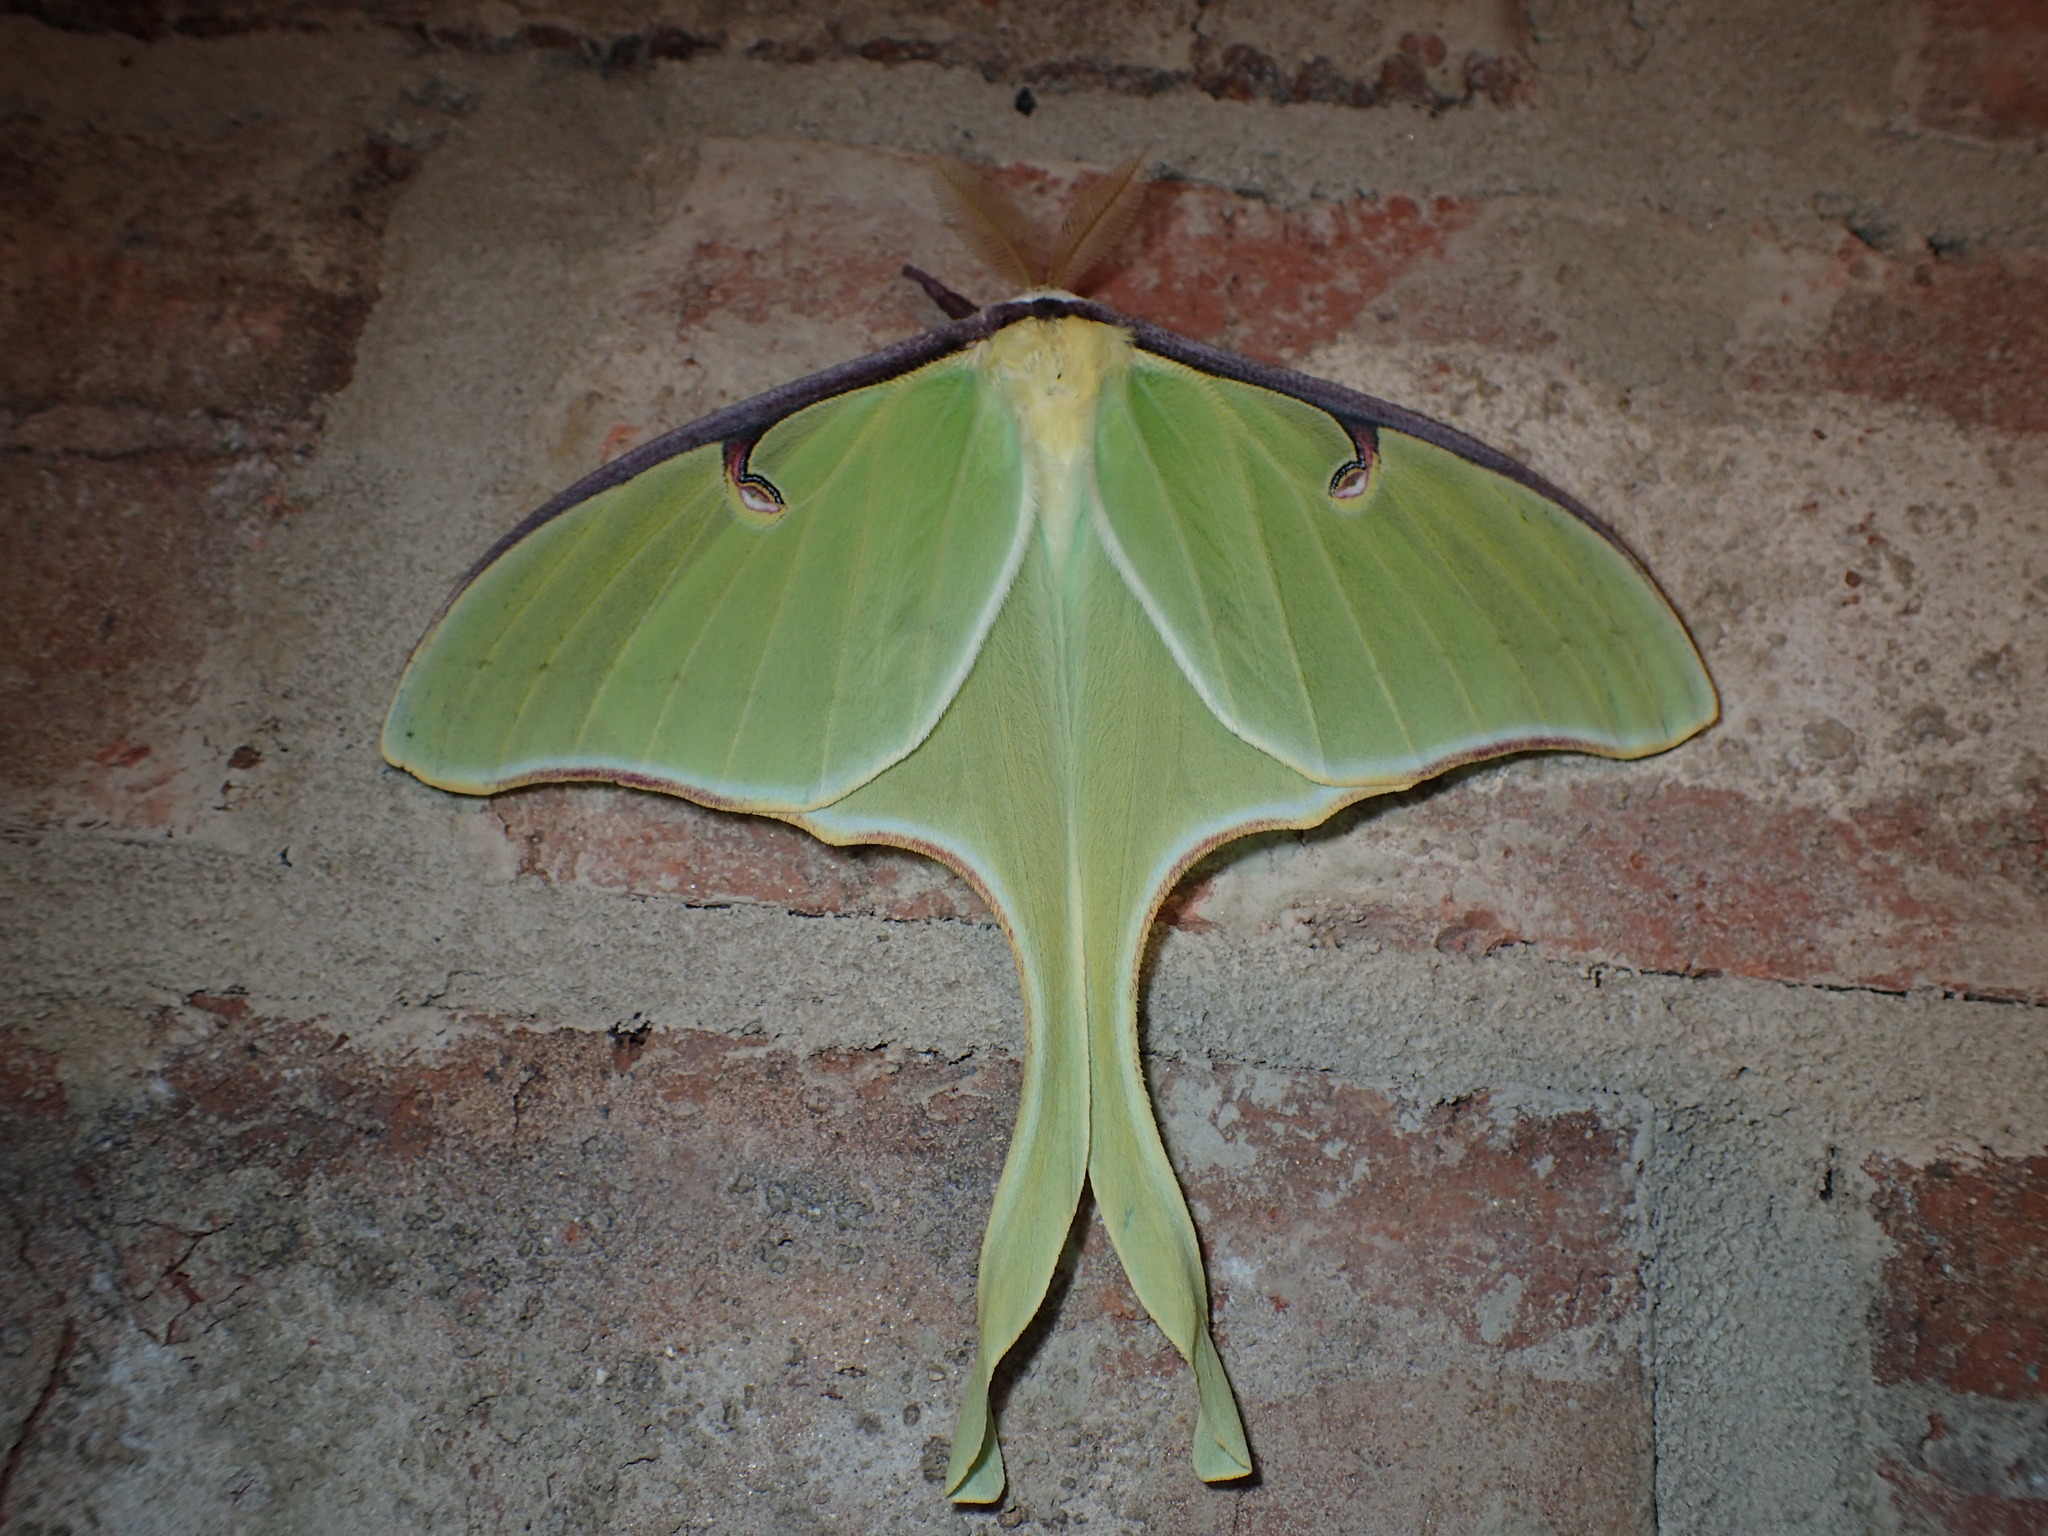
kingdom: Animalia
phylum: Arthropoda
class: Insecta
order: Lepidoptera
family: Saturniidae
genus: Actias
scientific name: Actias luna
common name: Luna moth
